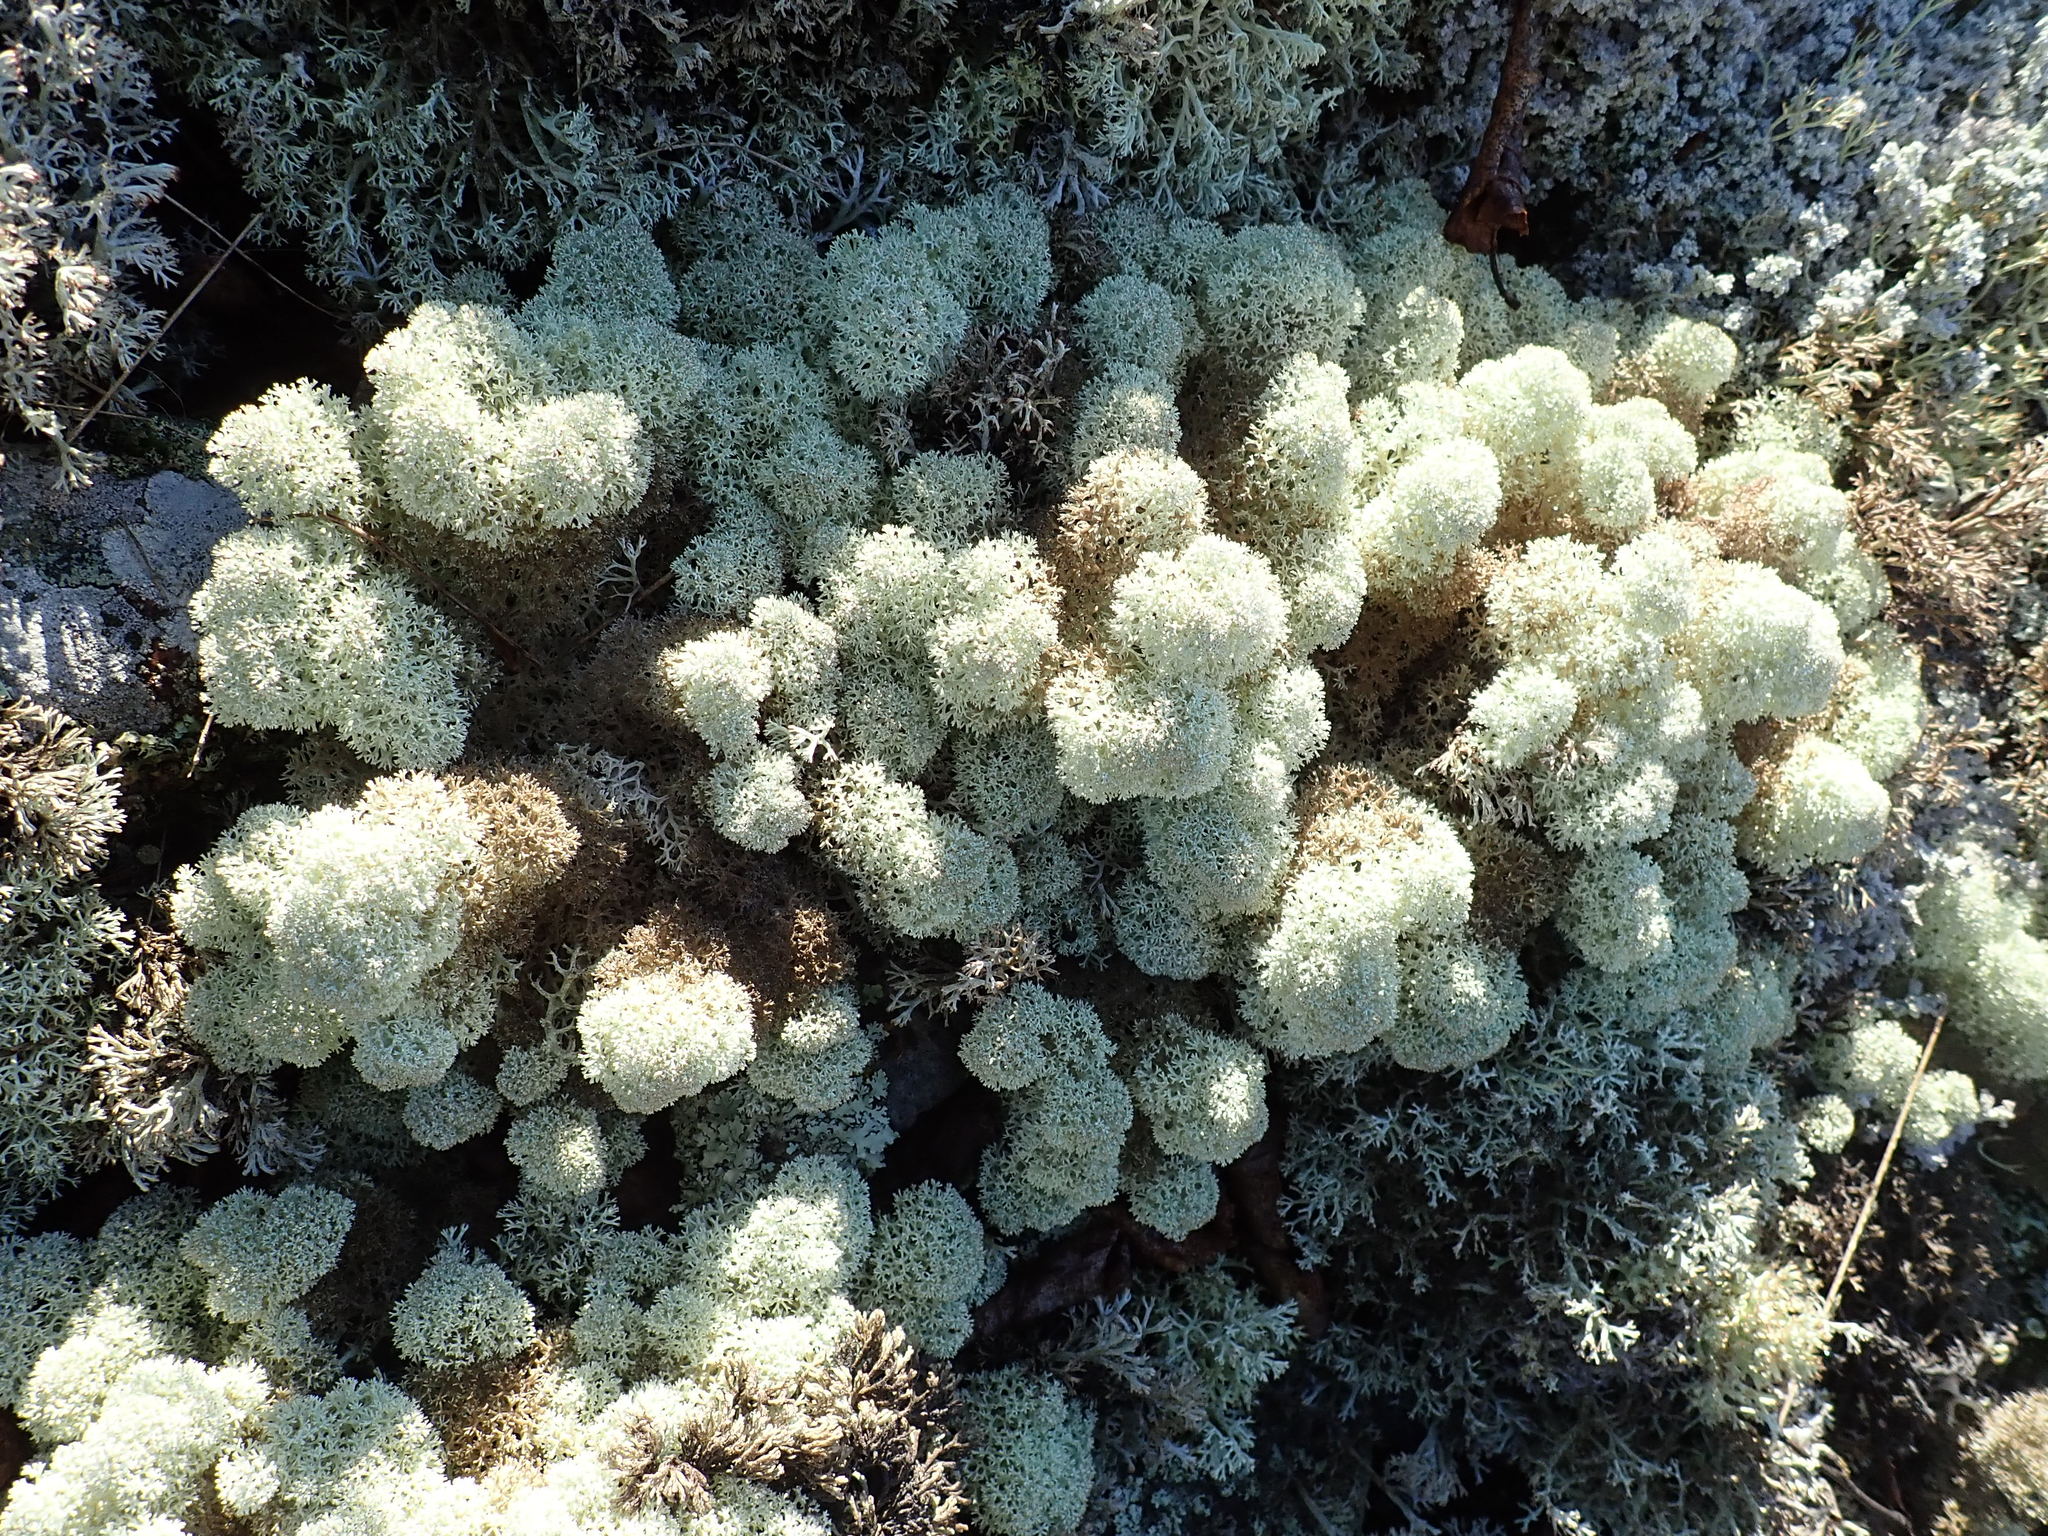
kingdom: Fungi
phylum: Ascomycota
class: Lecanoromycetes
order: Lecanorales
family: Cladoniaceae
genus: Cladonia
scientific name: Cladonia stellaris
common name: Star-tipped reindeer lichen
